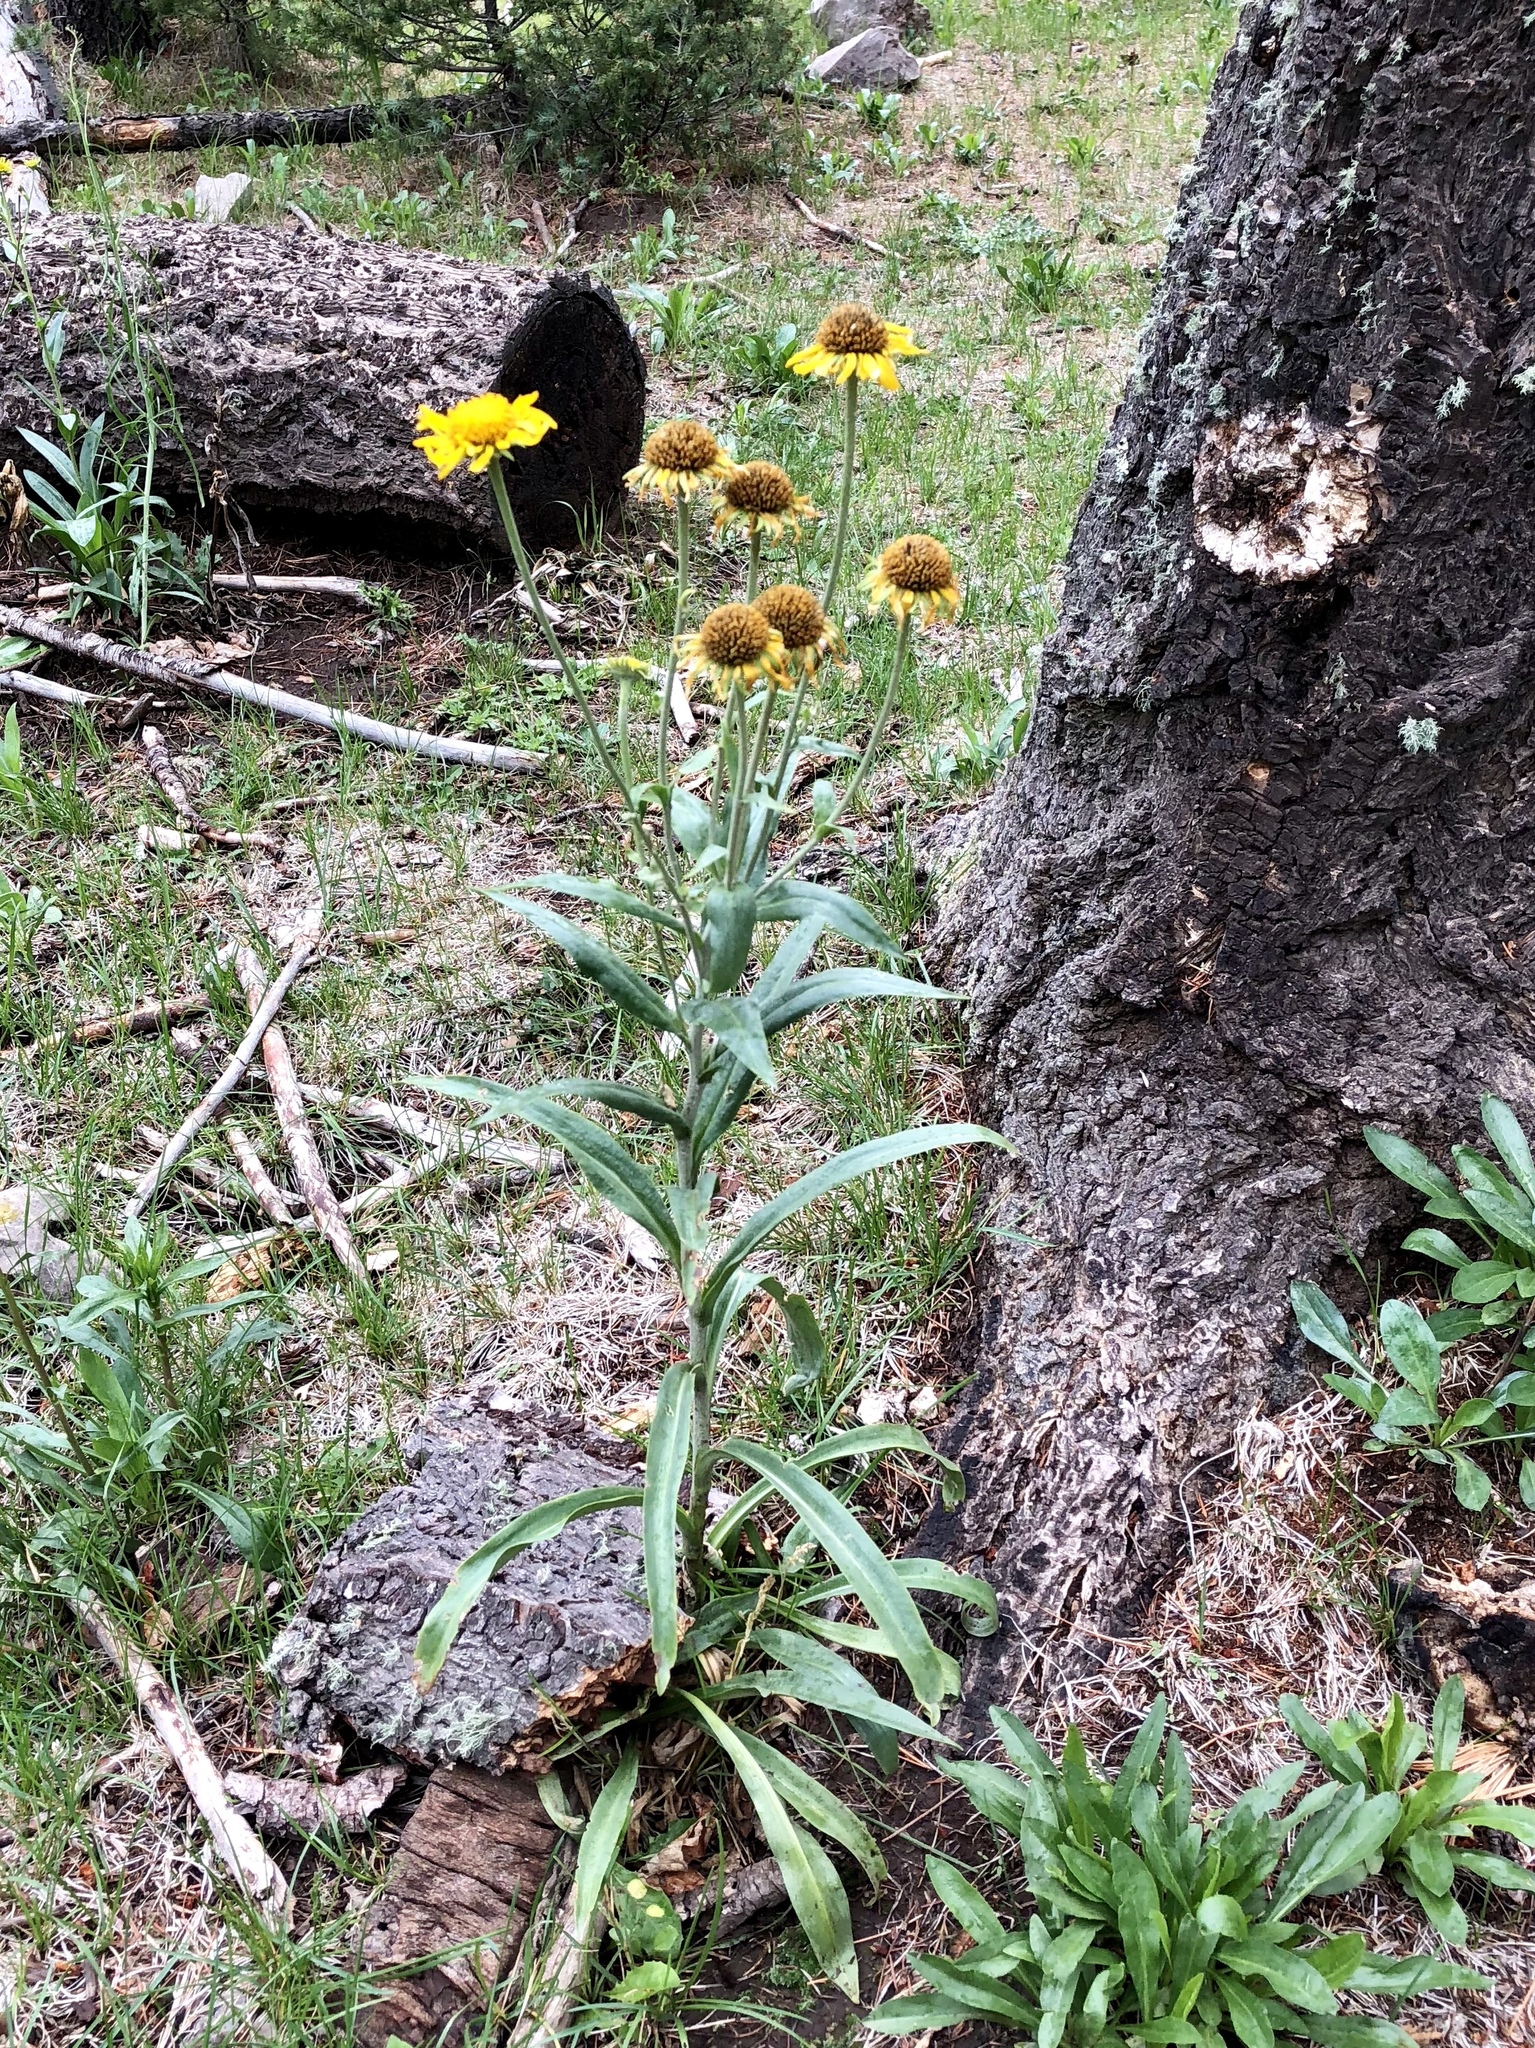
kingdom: Plantae
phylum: Tracheophyta
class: Magnoliopsida
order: Asterales
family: Asteraceae
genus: Hymenoxys
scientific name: Hymenoxys hoopesii
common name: Orange-sneezeweed
